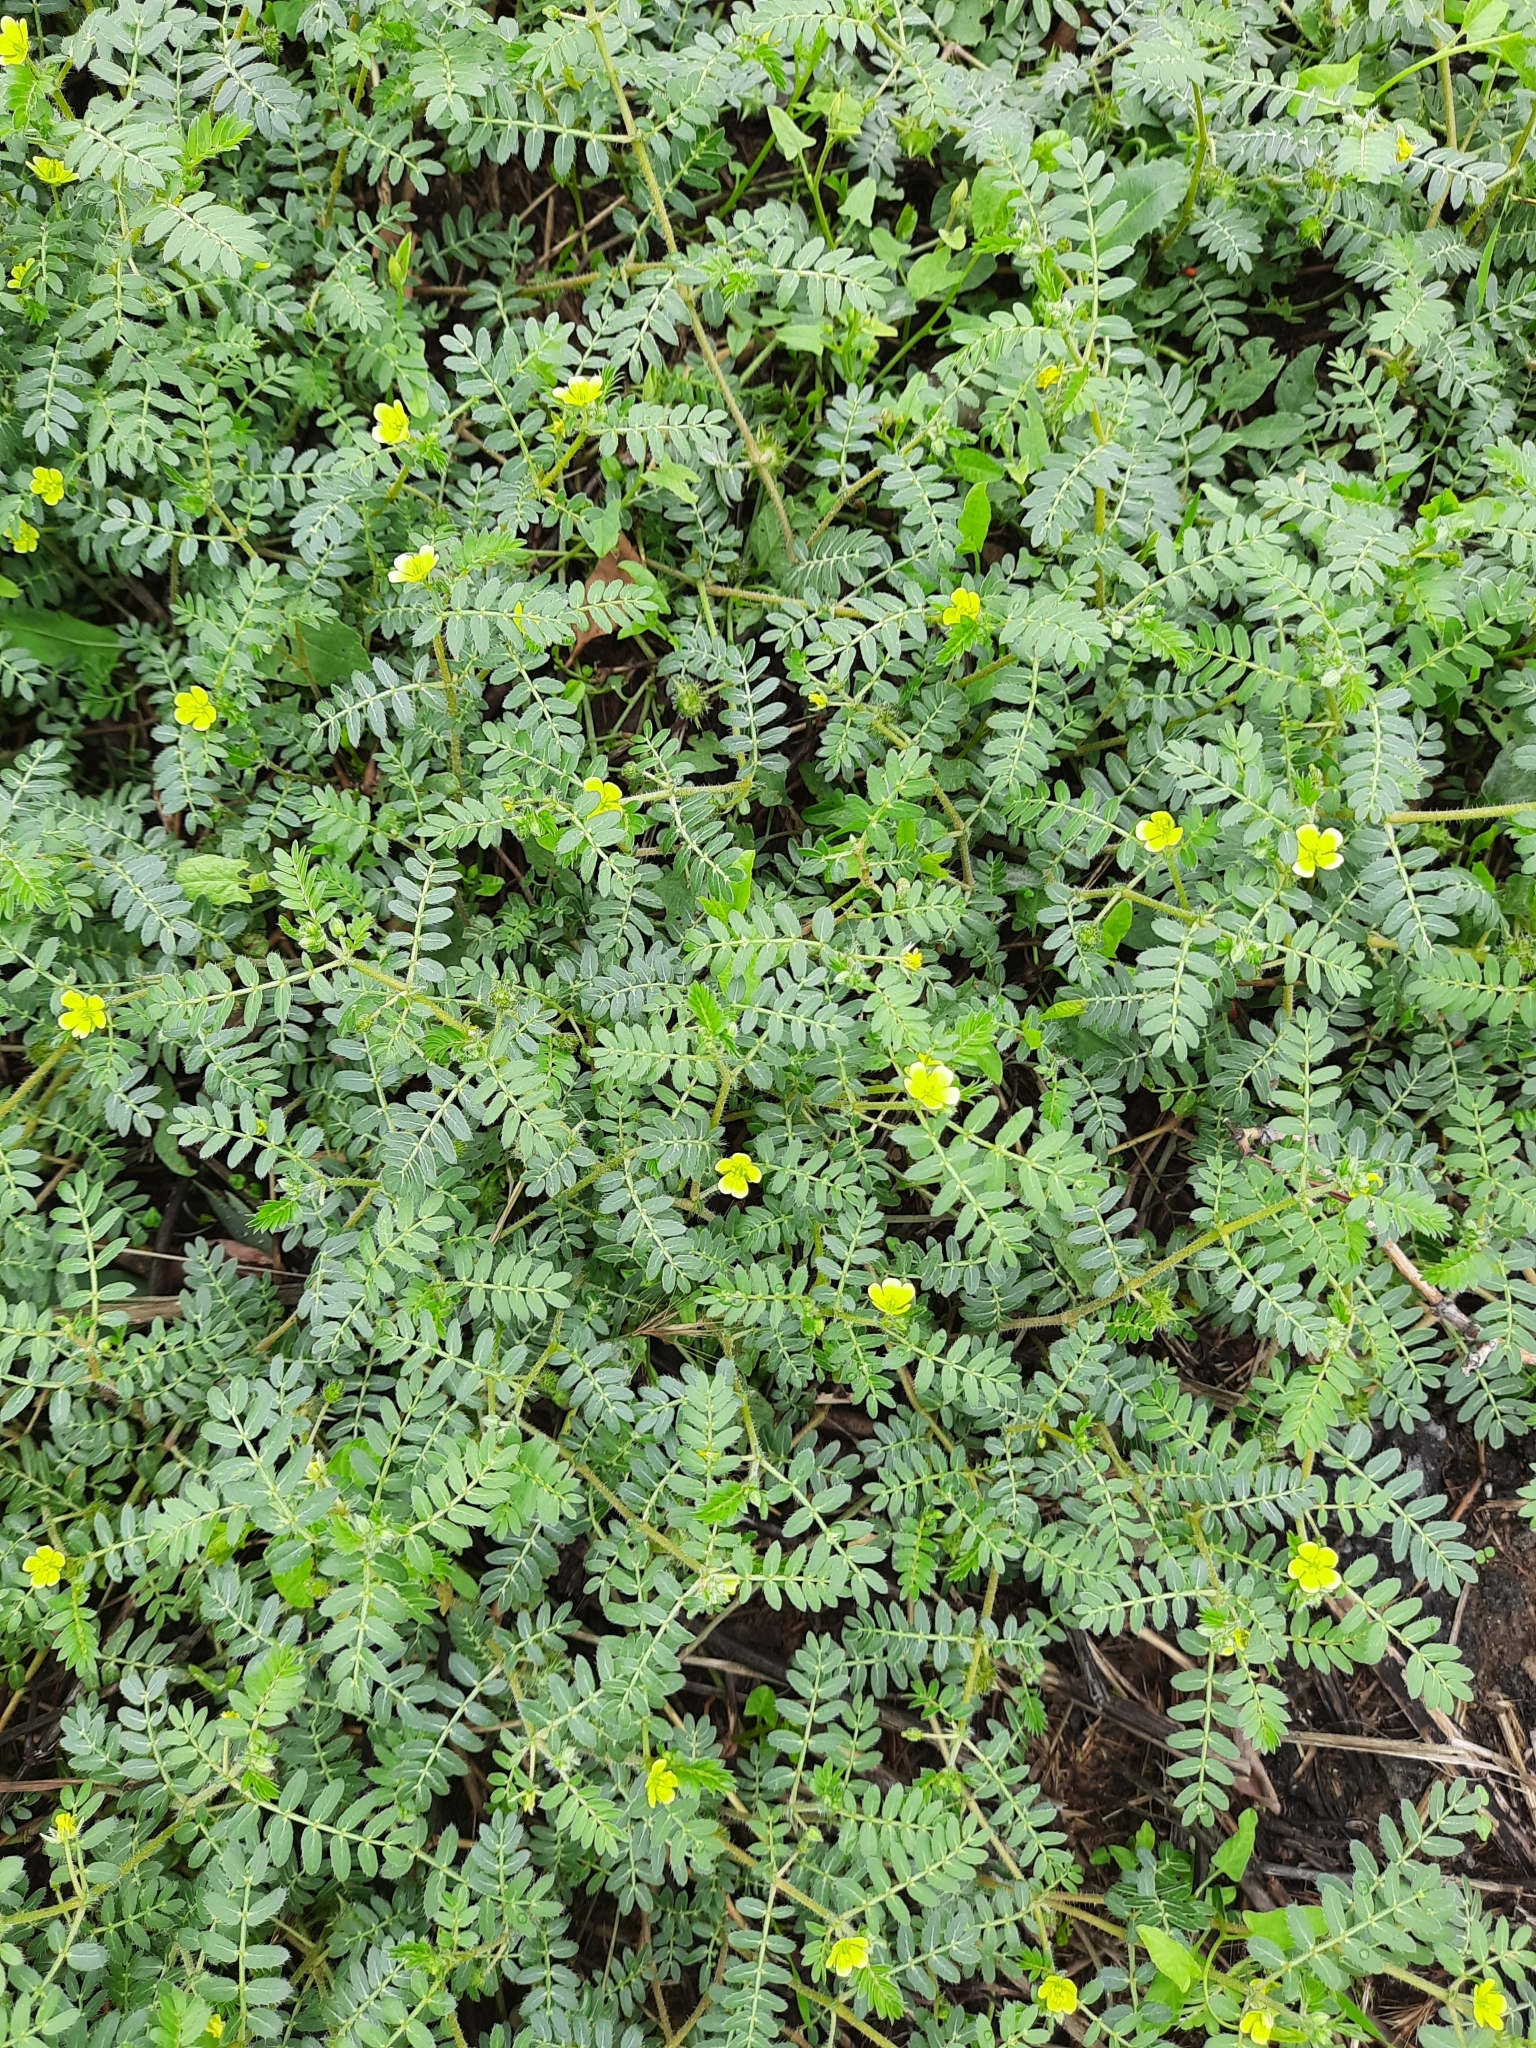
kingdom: Plantae
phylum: Tracheophyta
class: Magnoliopsida
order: Zygophyllales
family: Zygophyllaceae
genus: Tribulus
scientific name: Tribulus terrestris
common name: Puncturevine
